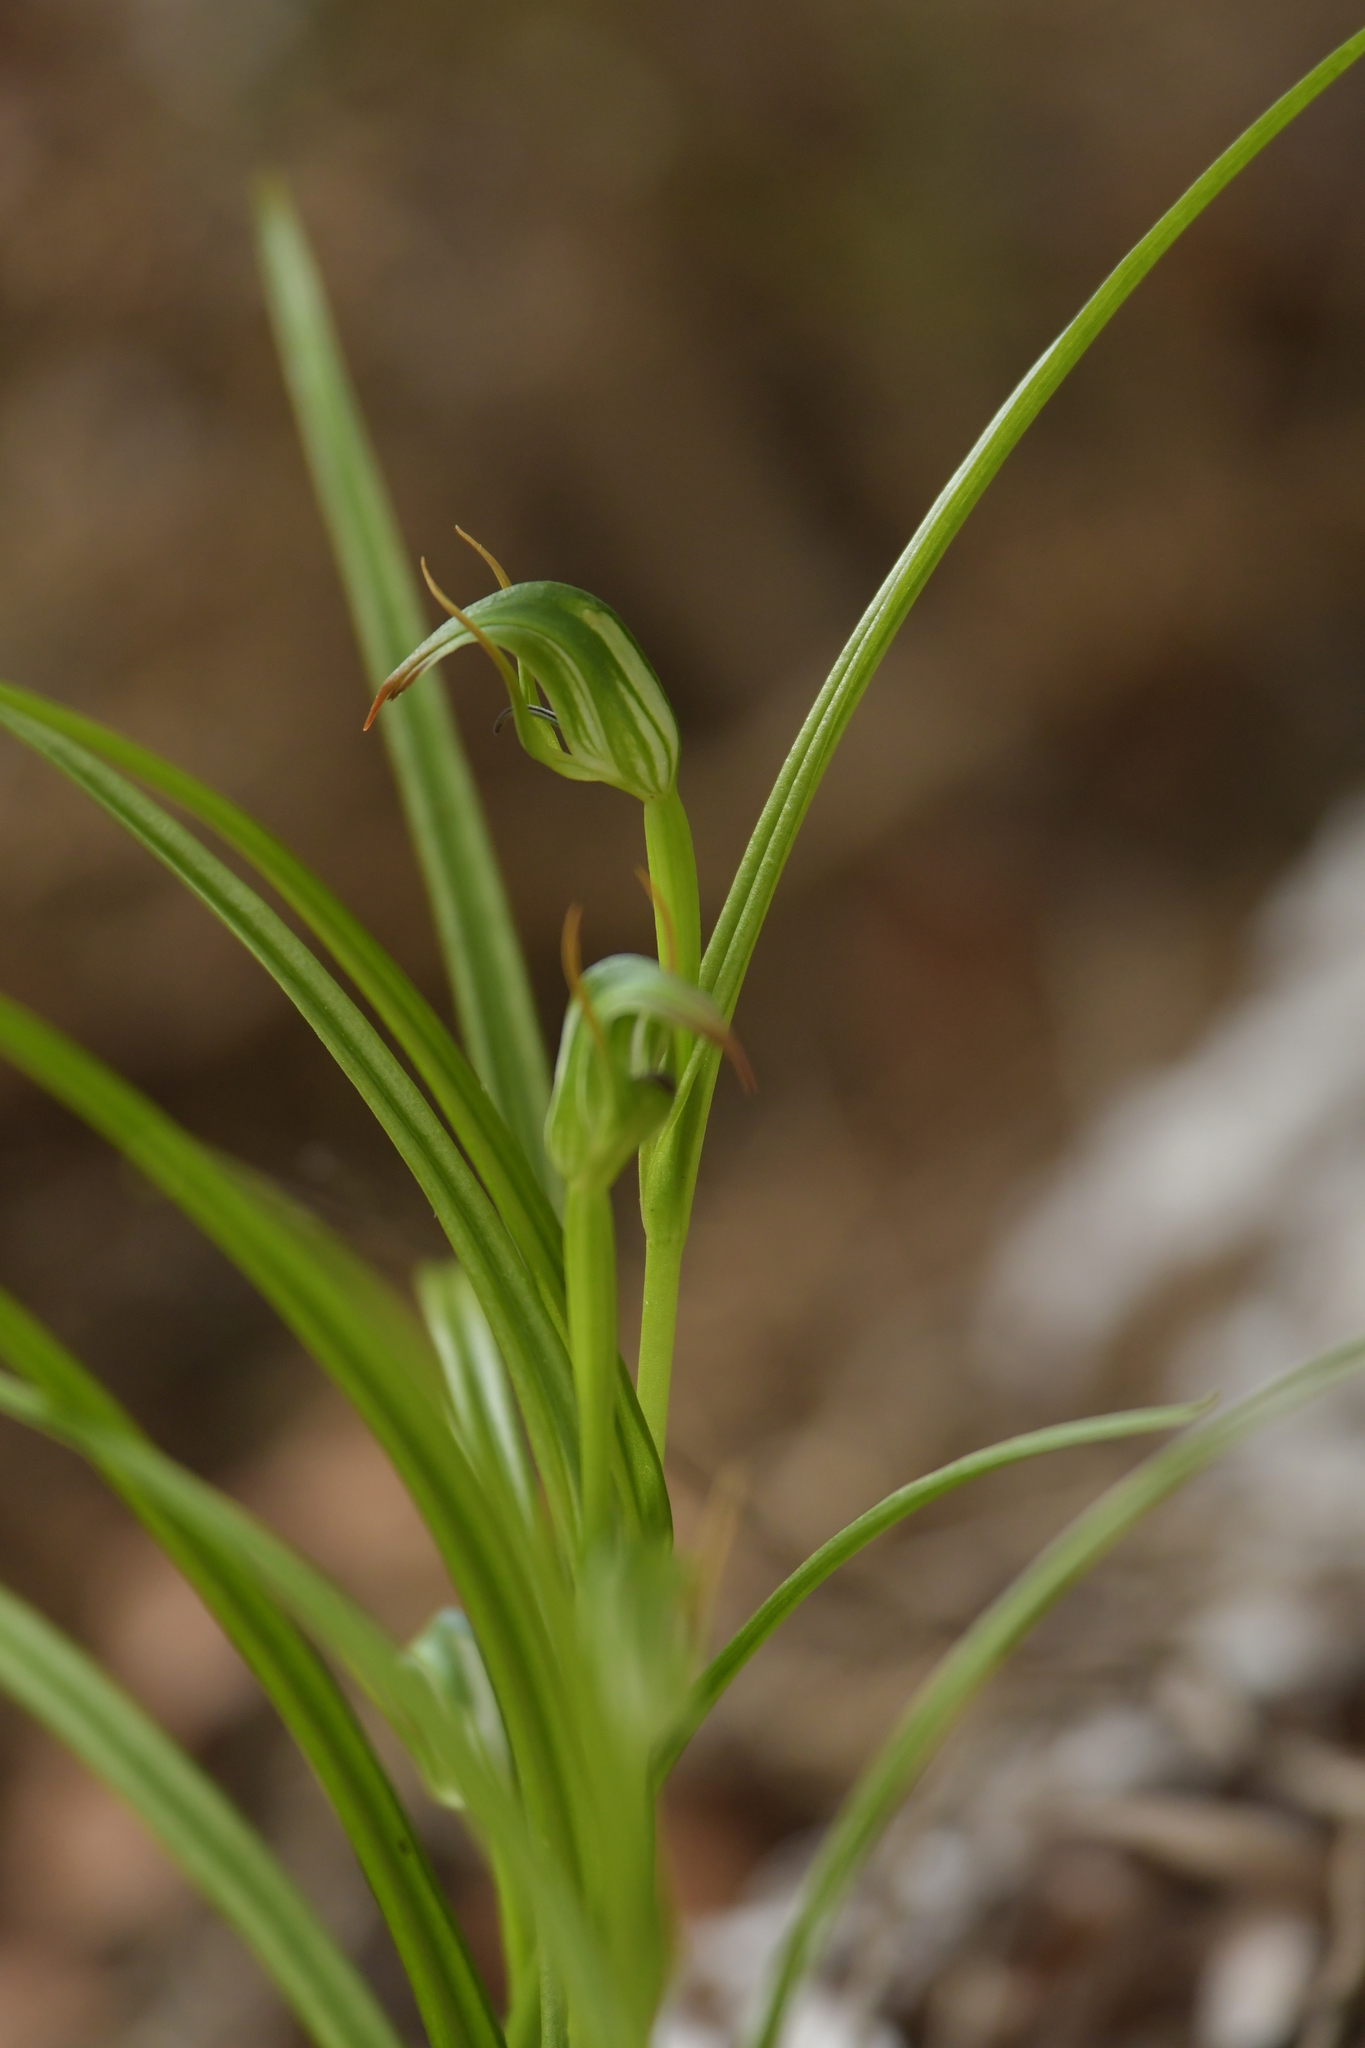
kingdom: Plantae
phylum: Tracheophyta
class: Liliopsida
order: Asparagales
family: Orchidaceae
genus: Pterostylis
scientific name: Pterostylis graminea
